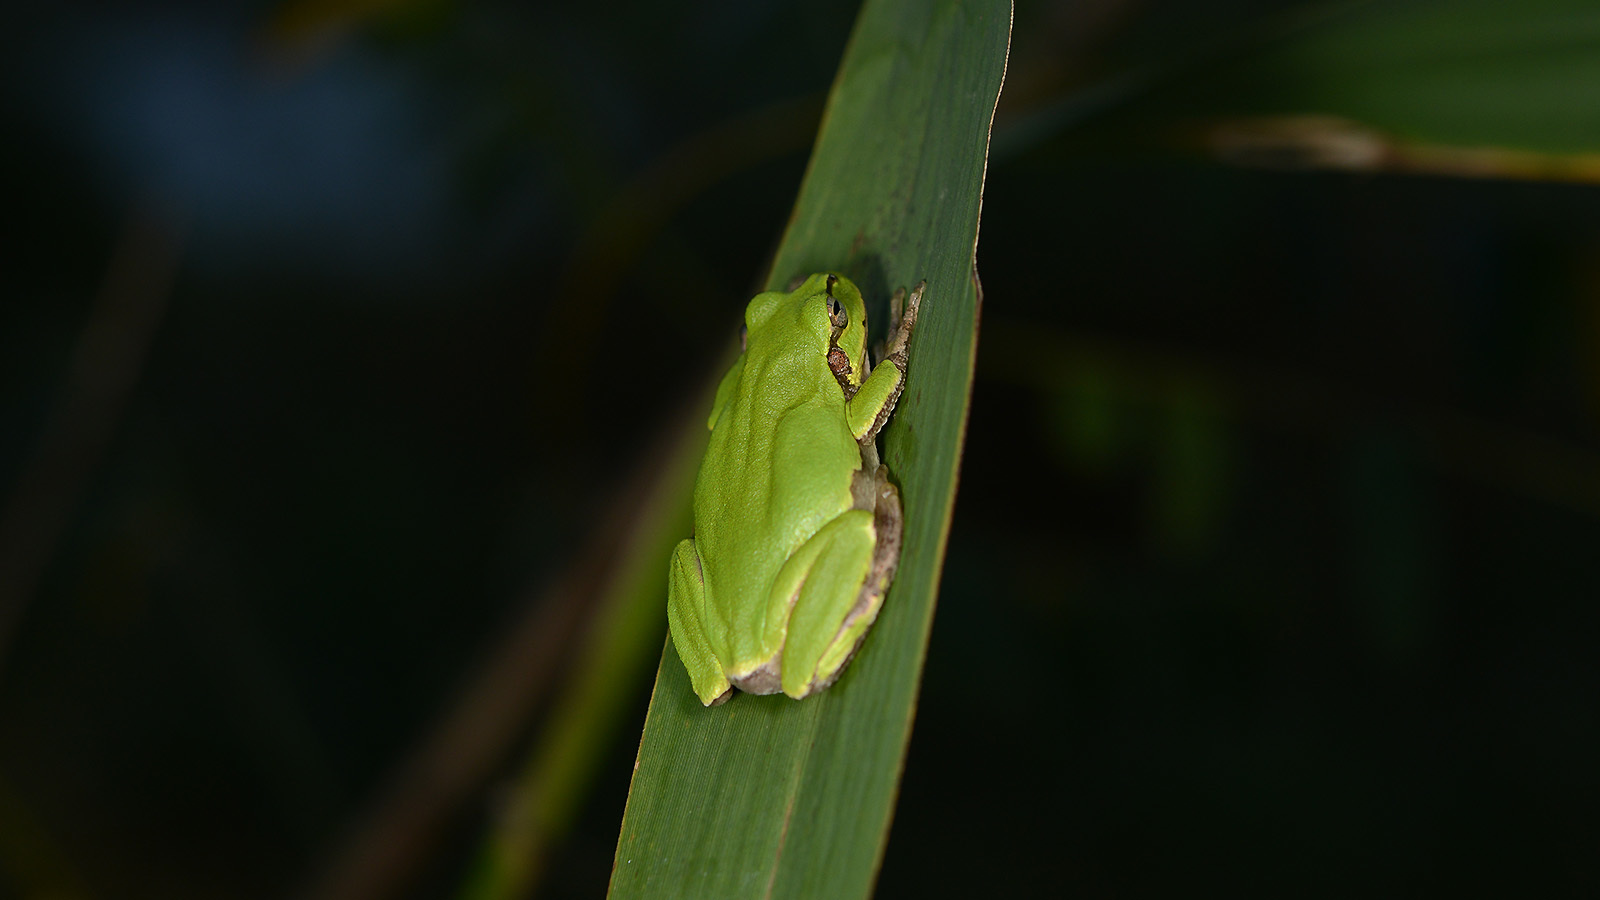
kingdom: Animalia
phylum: Chordata
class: Amphibia
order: Anura
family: Hylidae
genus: Dryophytes
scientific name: Dryophytes japonicus
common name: Japanese treefrog
